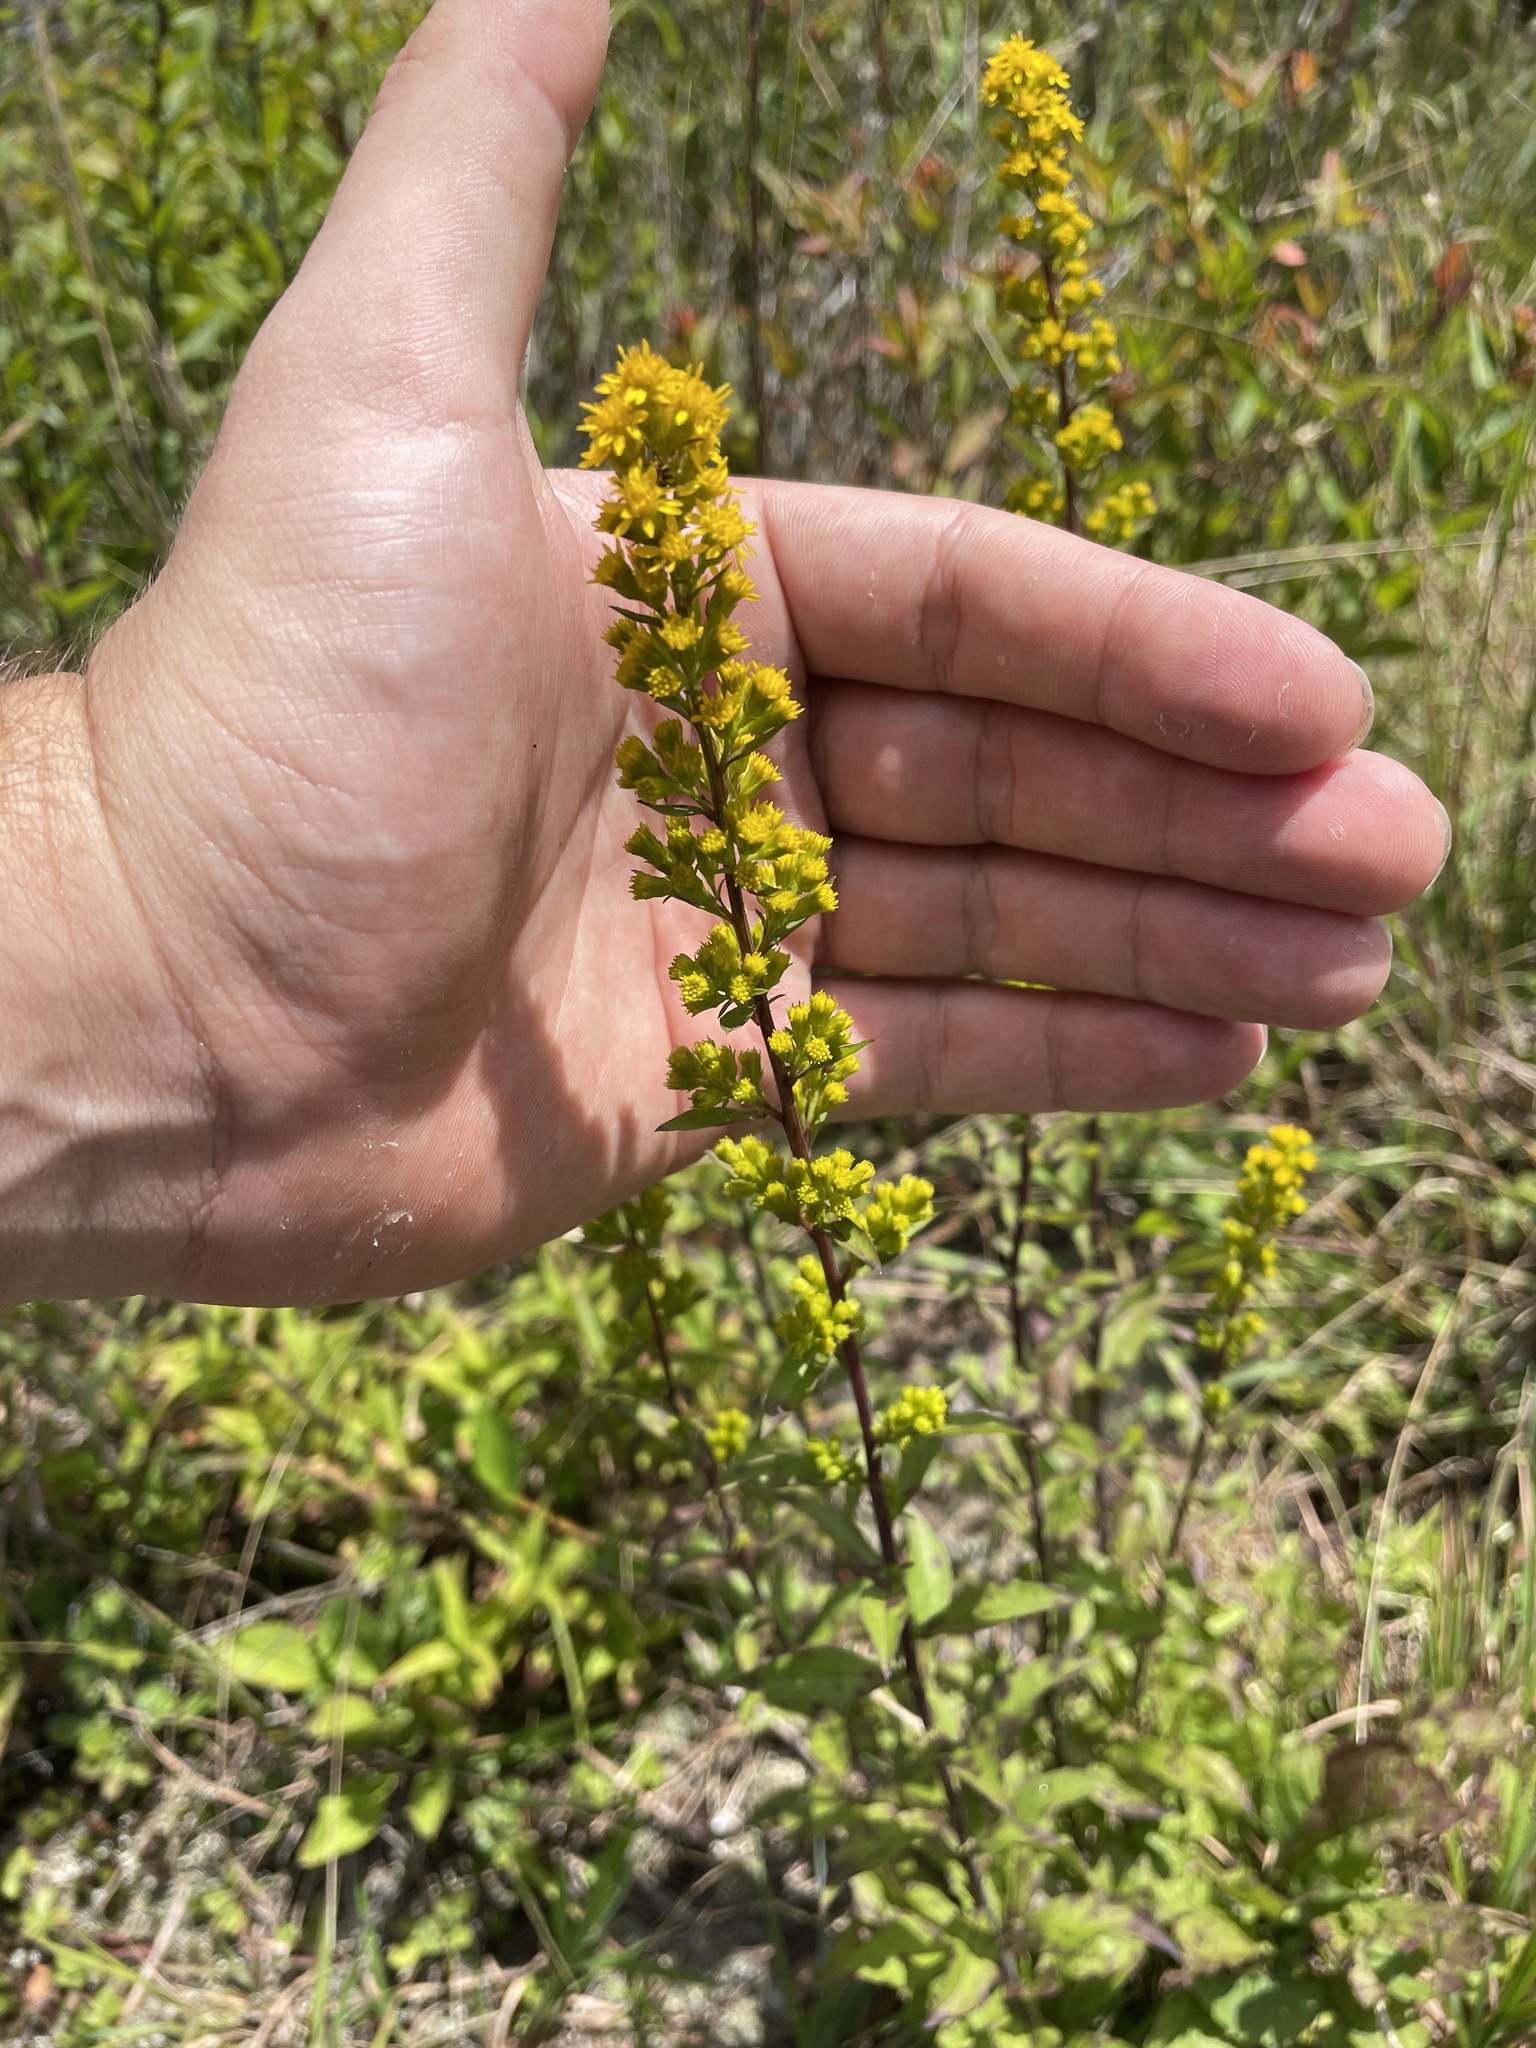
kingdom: Plantae
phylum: Tracheophyta
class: Magnoliopsida
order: Asterales
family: Asteraceae
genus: Solidago
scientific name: Solidago puberula
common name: Downy goldenrod
